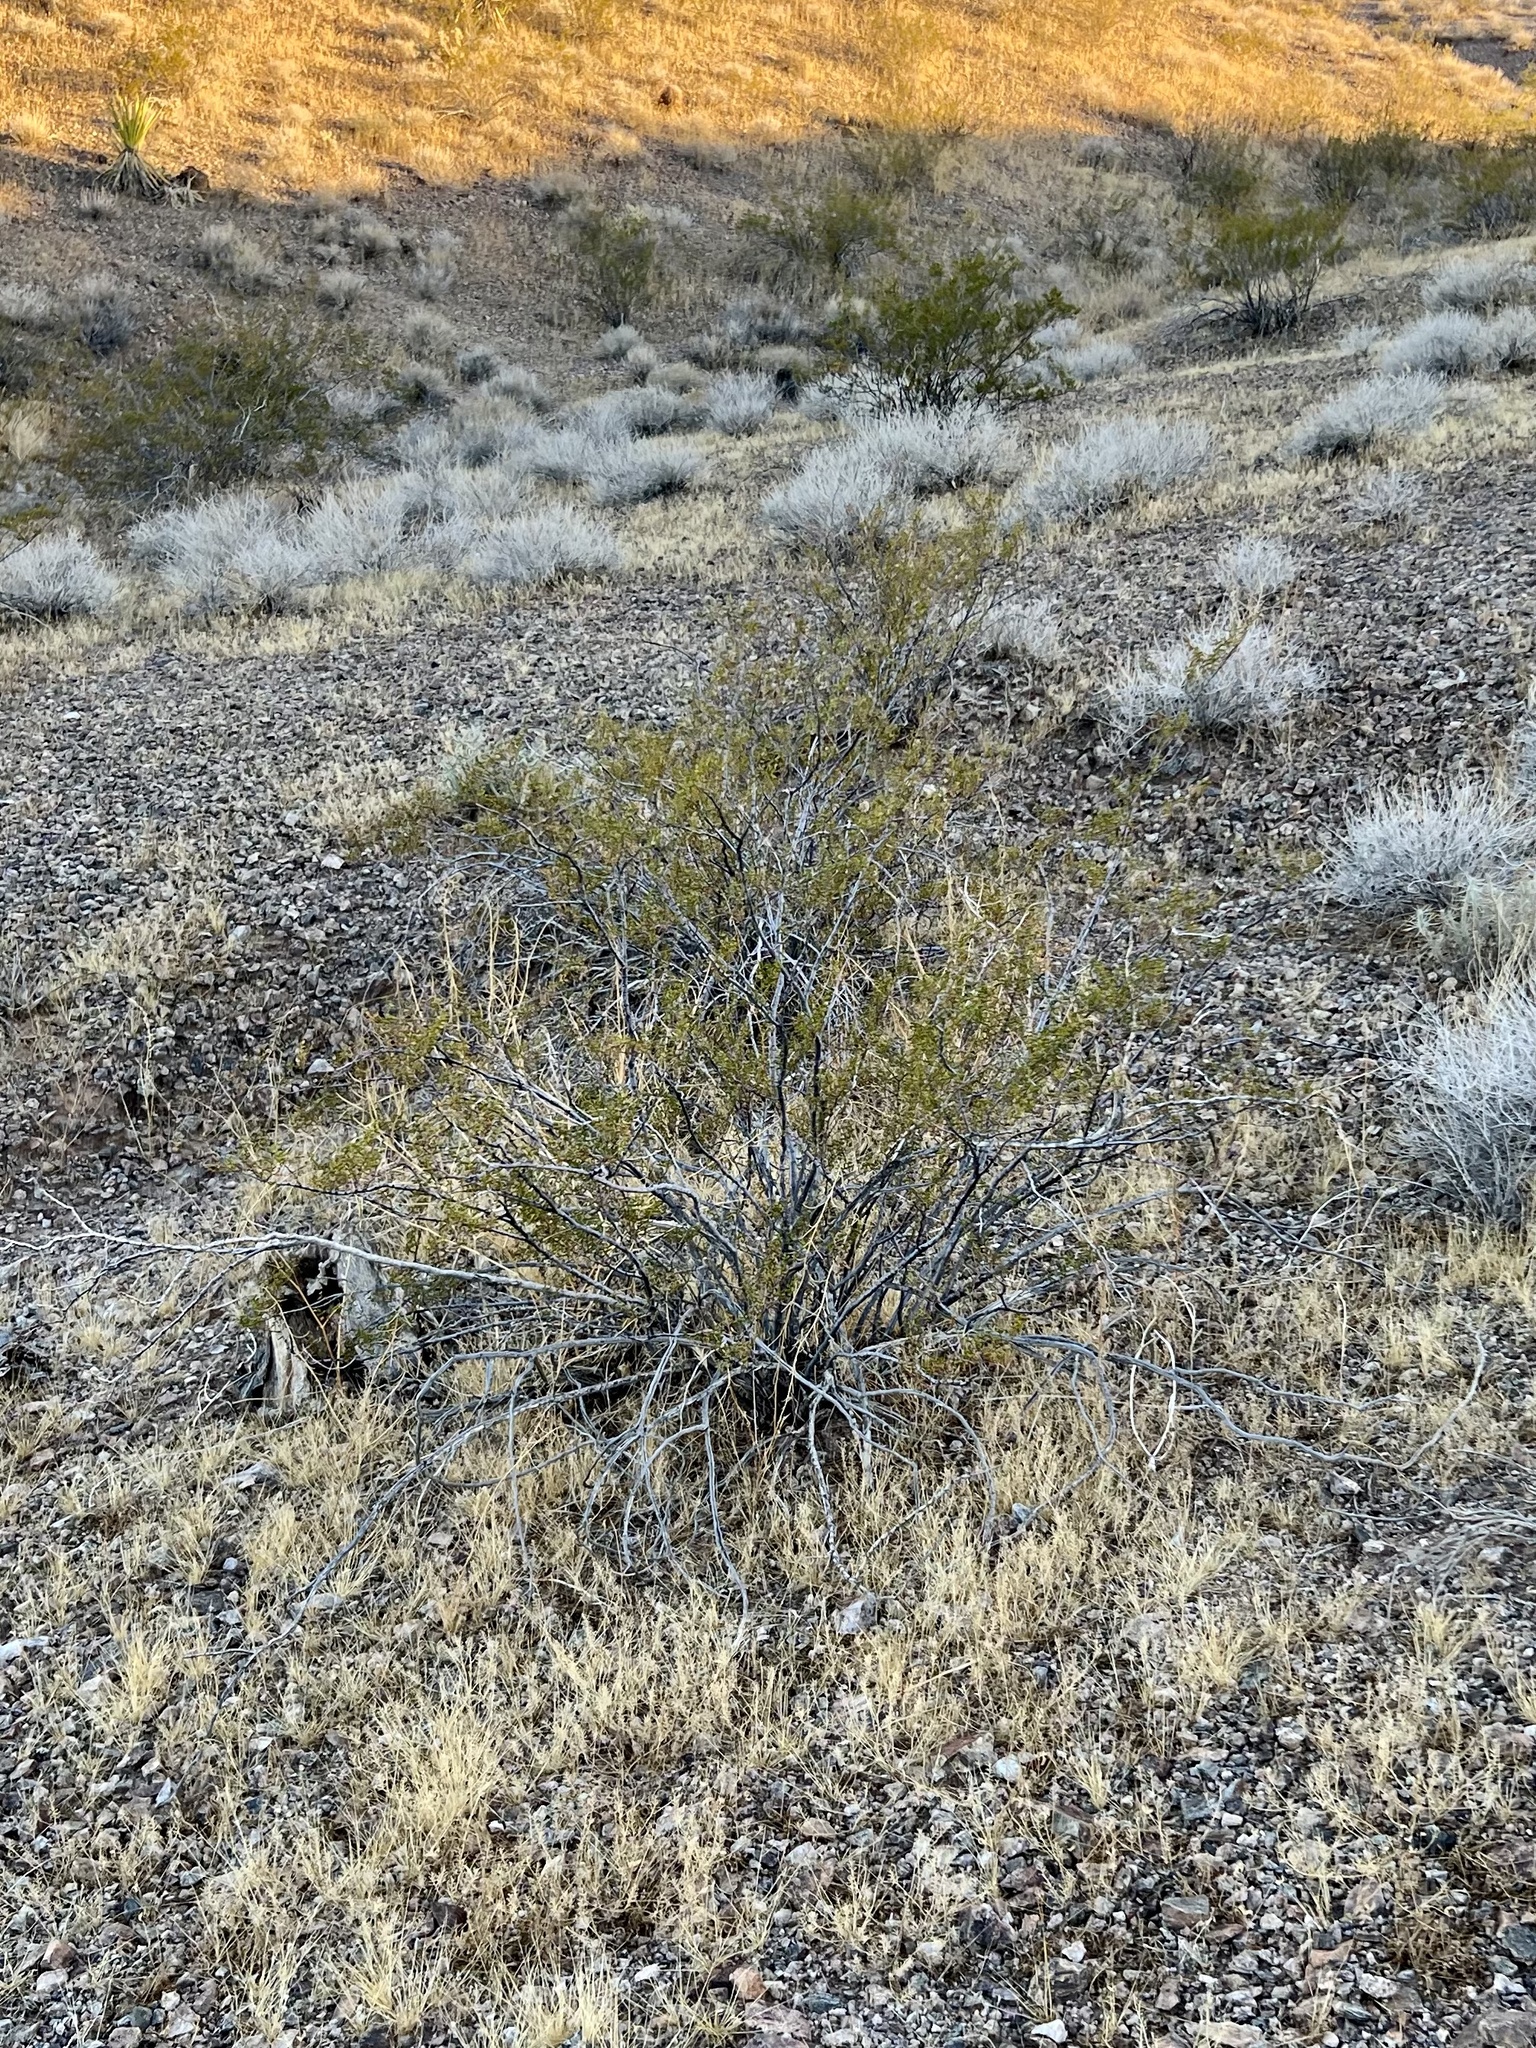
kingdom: Plantae
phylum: Tracheophyta
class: Magnoliopsida
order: Zygophyllales
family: Zygophyllaceae
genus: Larrea
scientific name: Larrea tridentata
